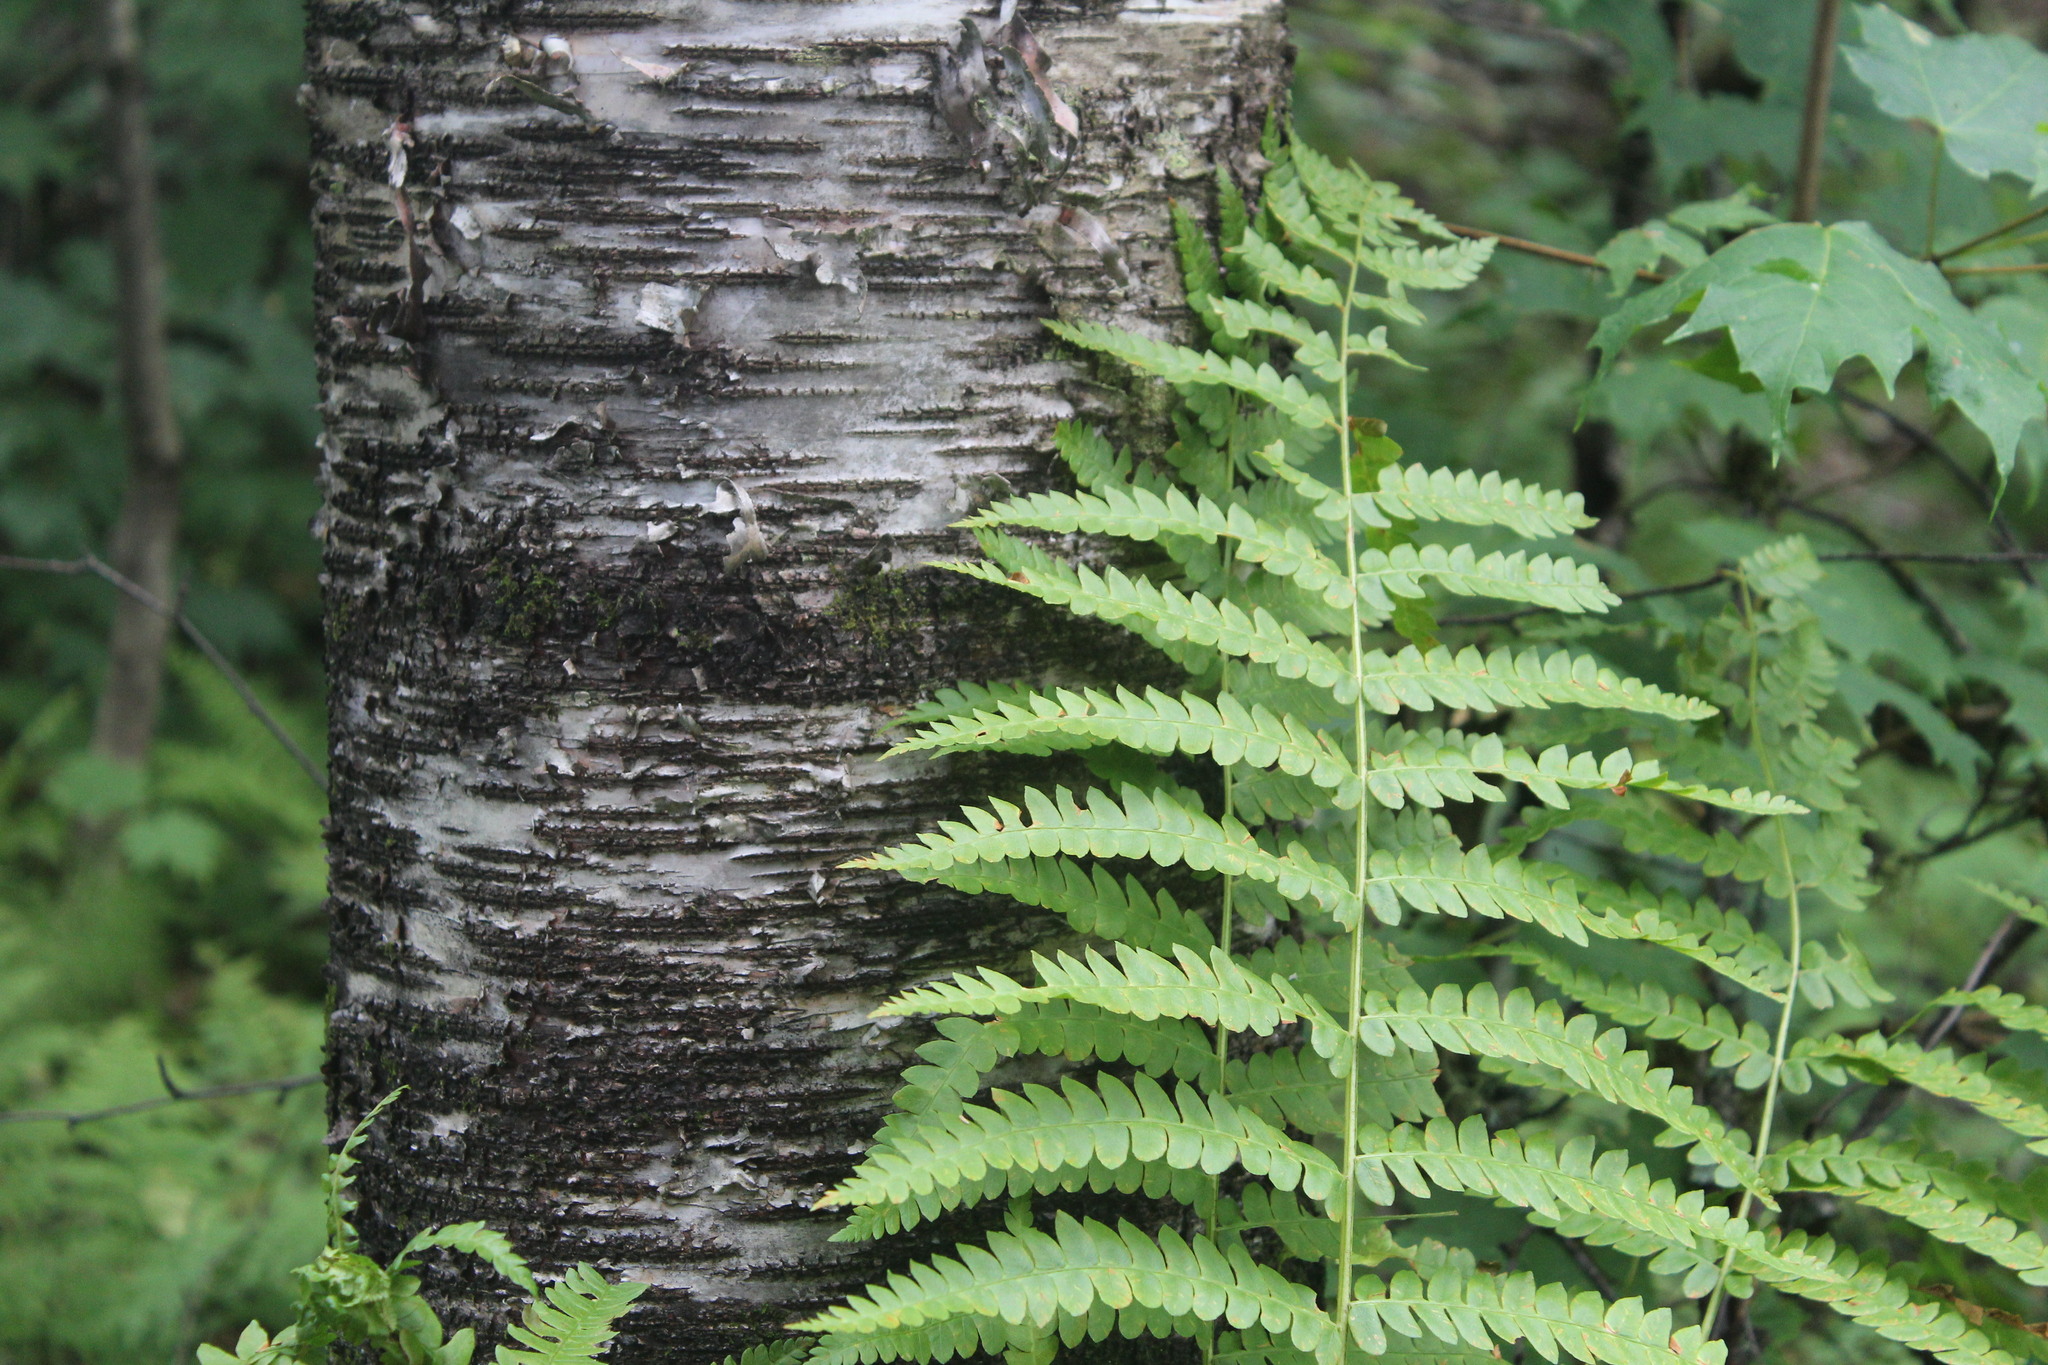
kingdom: Plantae
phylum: Tracheophyta
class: Polypodiopsida
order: Osmundales
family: Osmundaceae
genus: Osmundastrum
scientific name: Osmundastrum cinnamomeum
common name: Cinnamon fern
